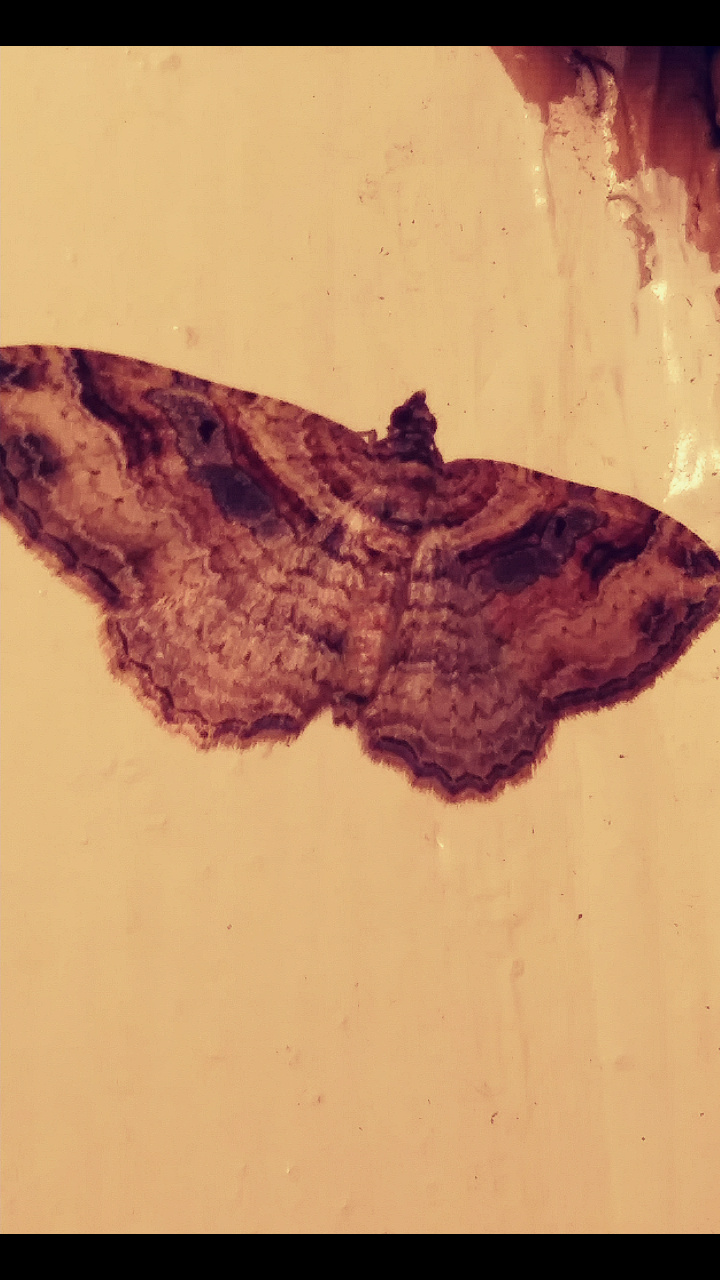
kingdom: Animalia
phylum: Arthropoda
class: Insecta
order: Lepidoptera
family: Geometridae
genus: Costaconvexa
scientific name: Costaconvexa centrostrigaria
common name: Bent-line carpet
